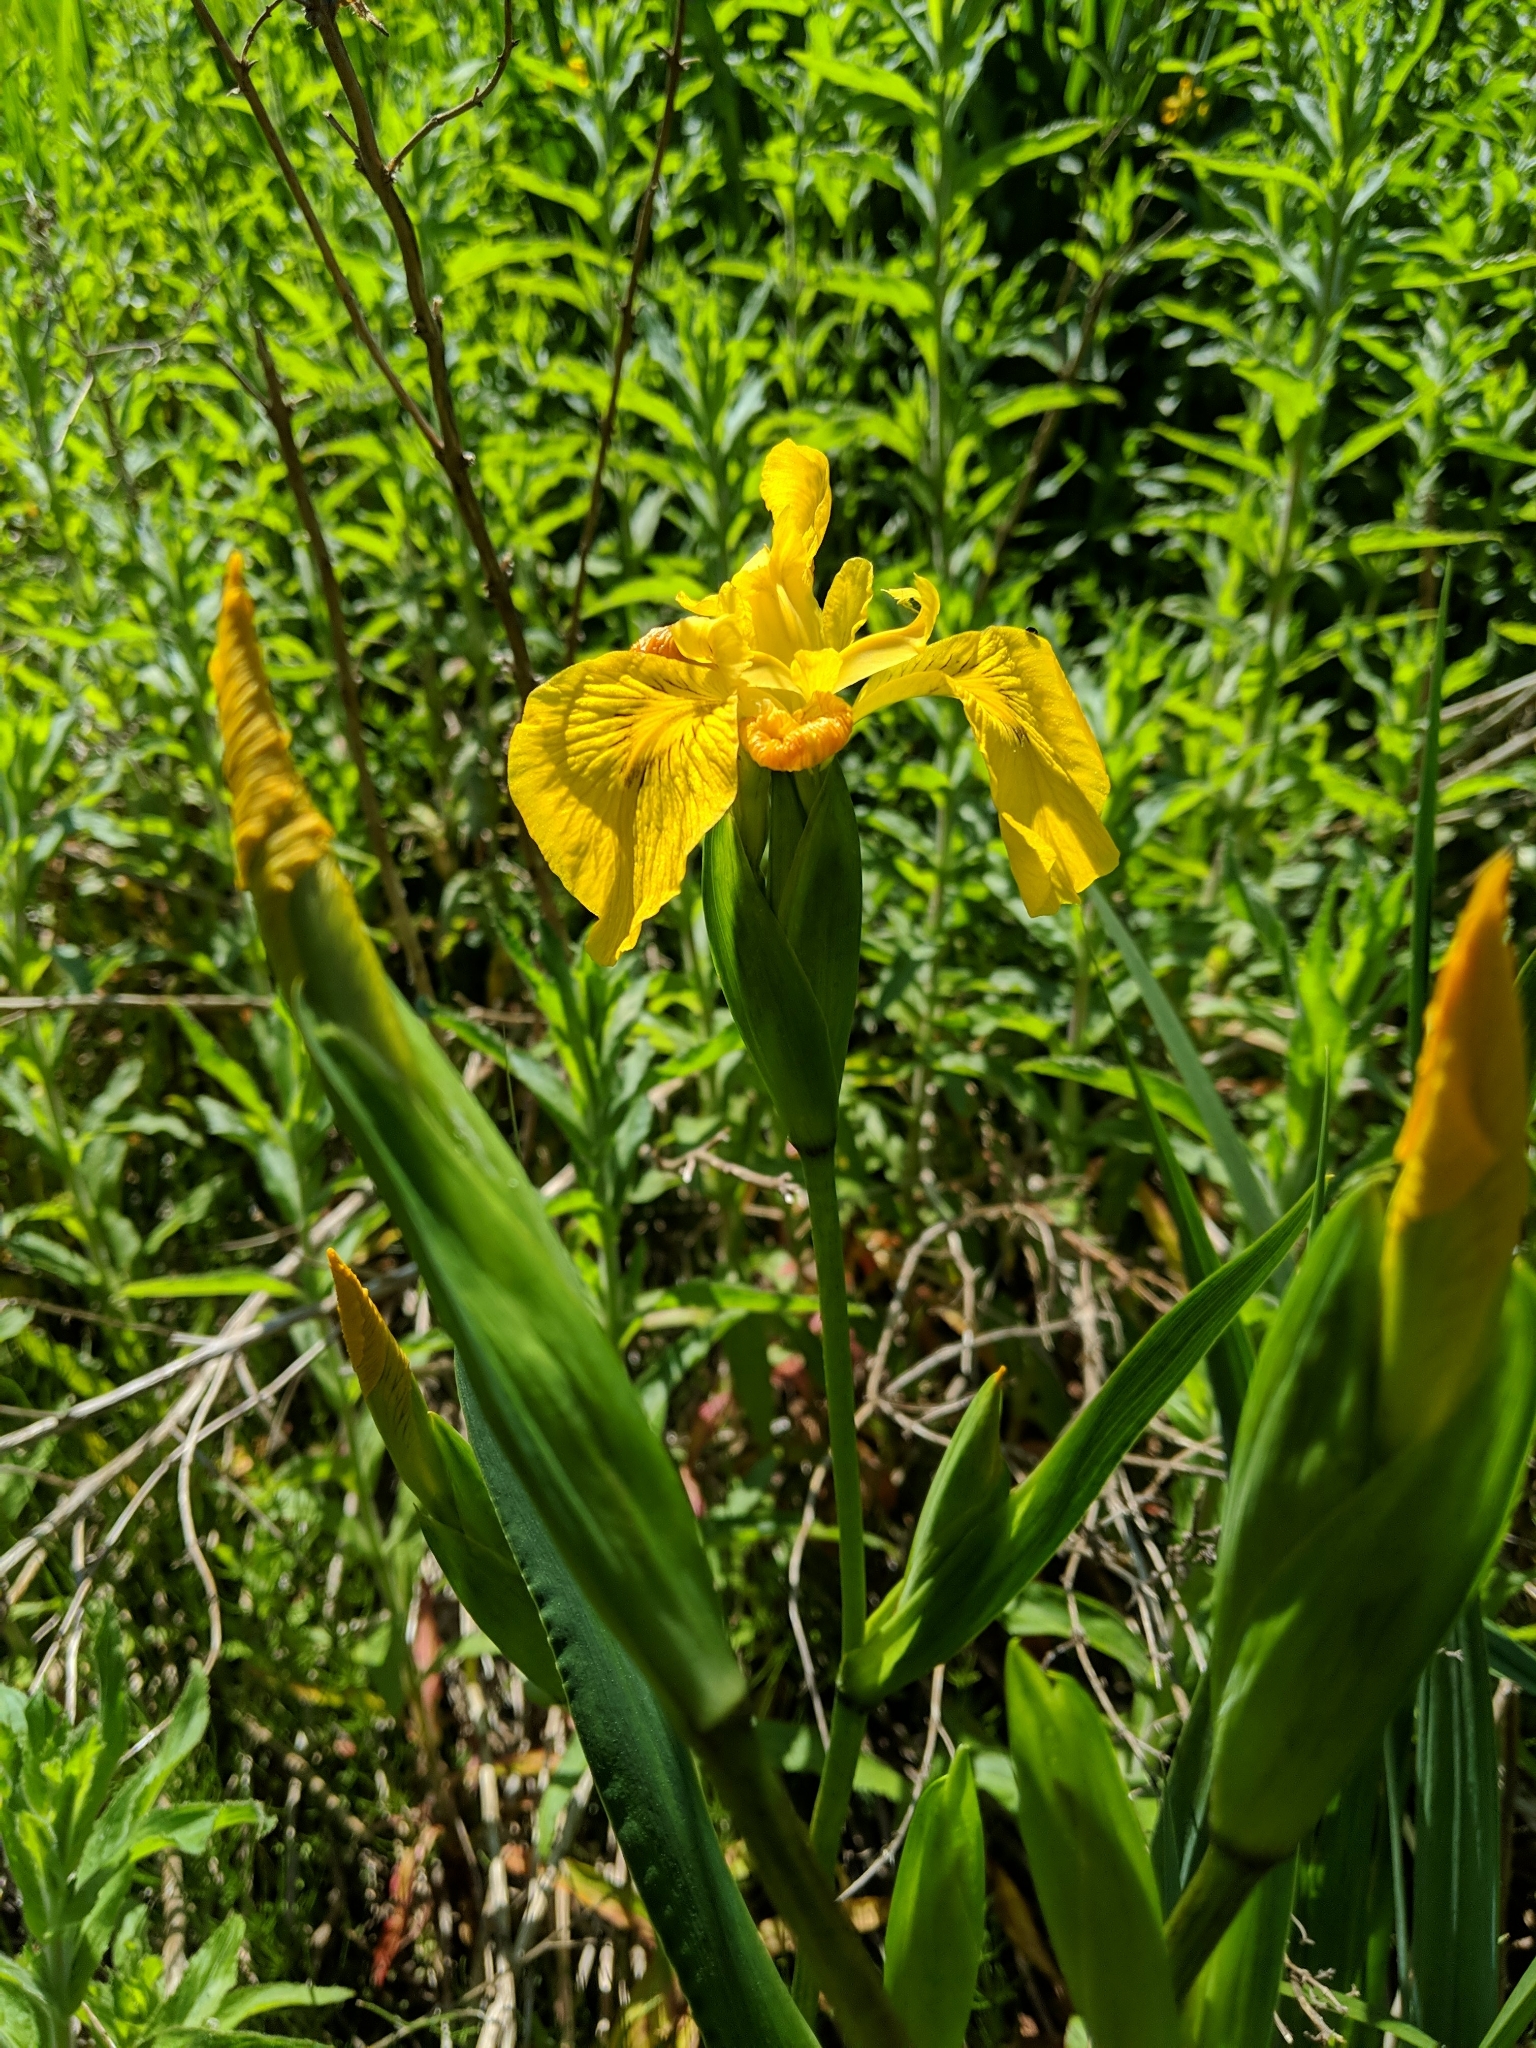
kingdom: Plantae
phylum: Tracheophyta
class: Liliopsida
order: Asparagales
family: Iridaceae
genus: Iris
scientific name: Iris pseudacorus
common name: Yellow flag
